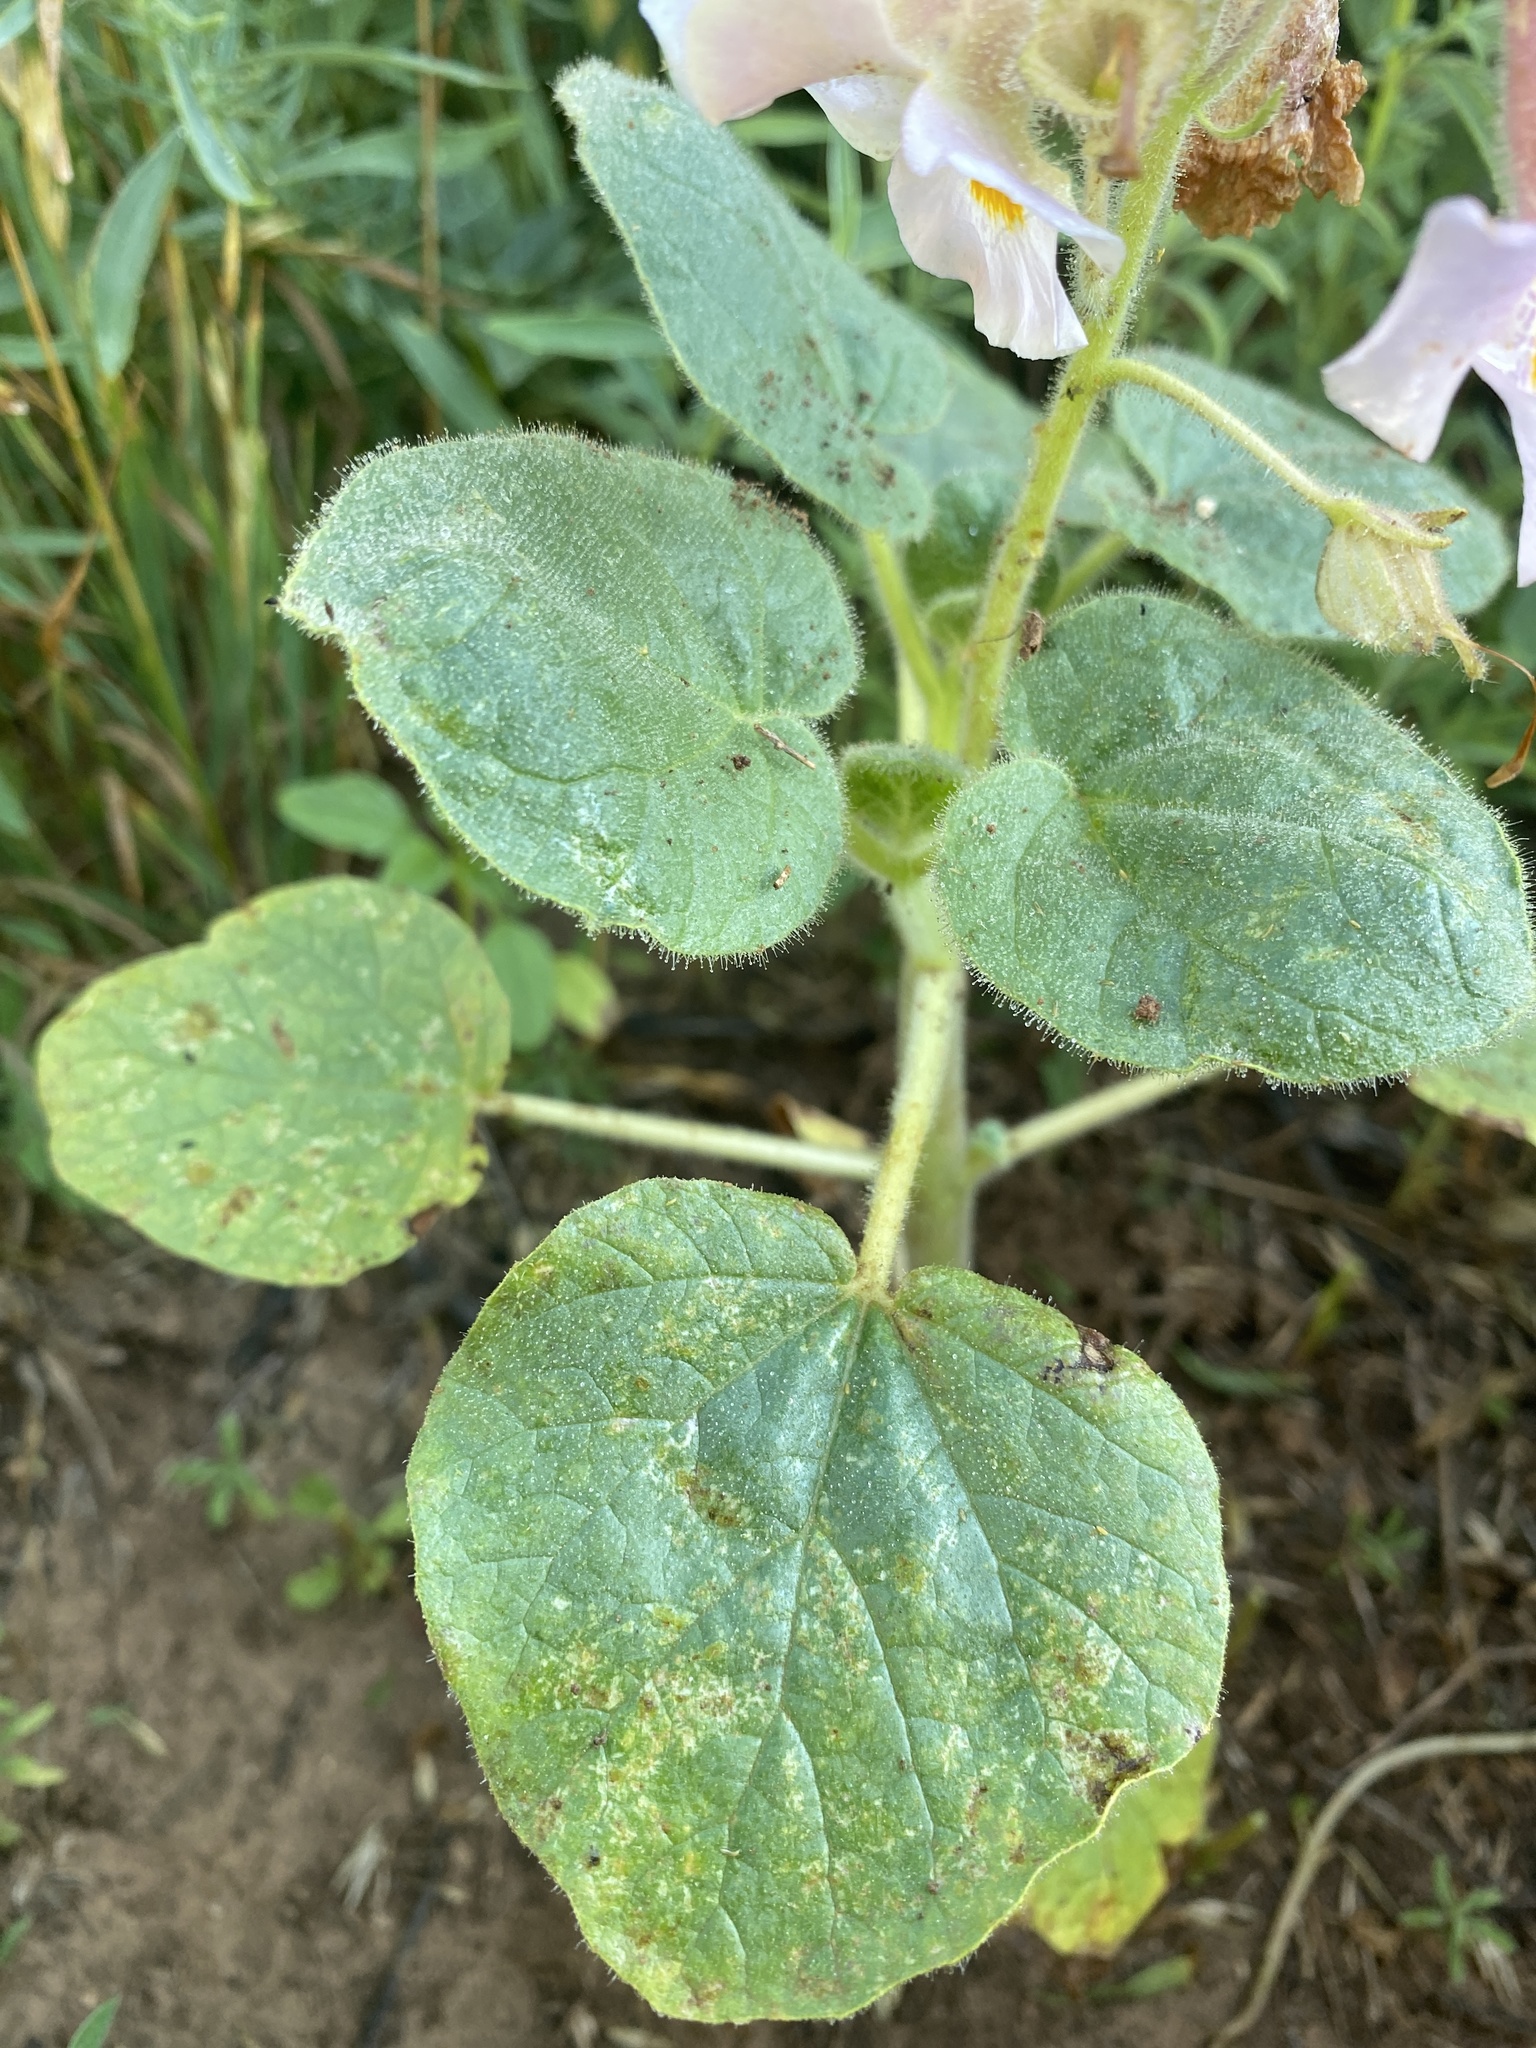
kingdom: Plantae
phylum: Tracheophyta
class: Magnoliopsida
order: Lamiales
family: Martyniaceae
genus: Proboscidea
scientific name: Proboscidea louisianica
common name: Elephant tusks
